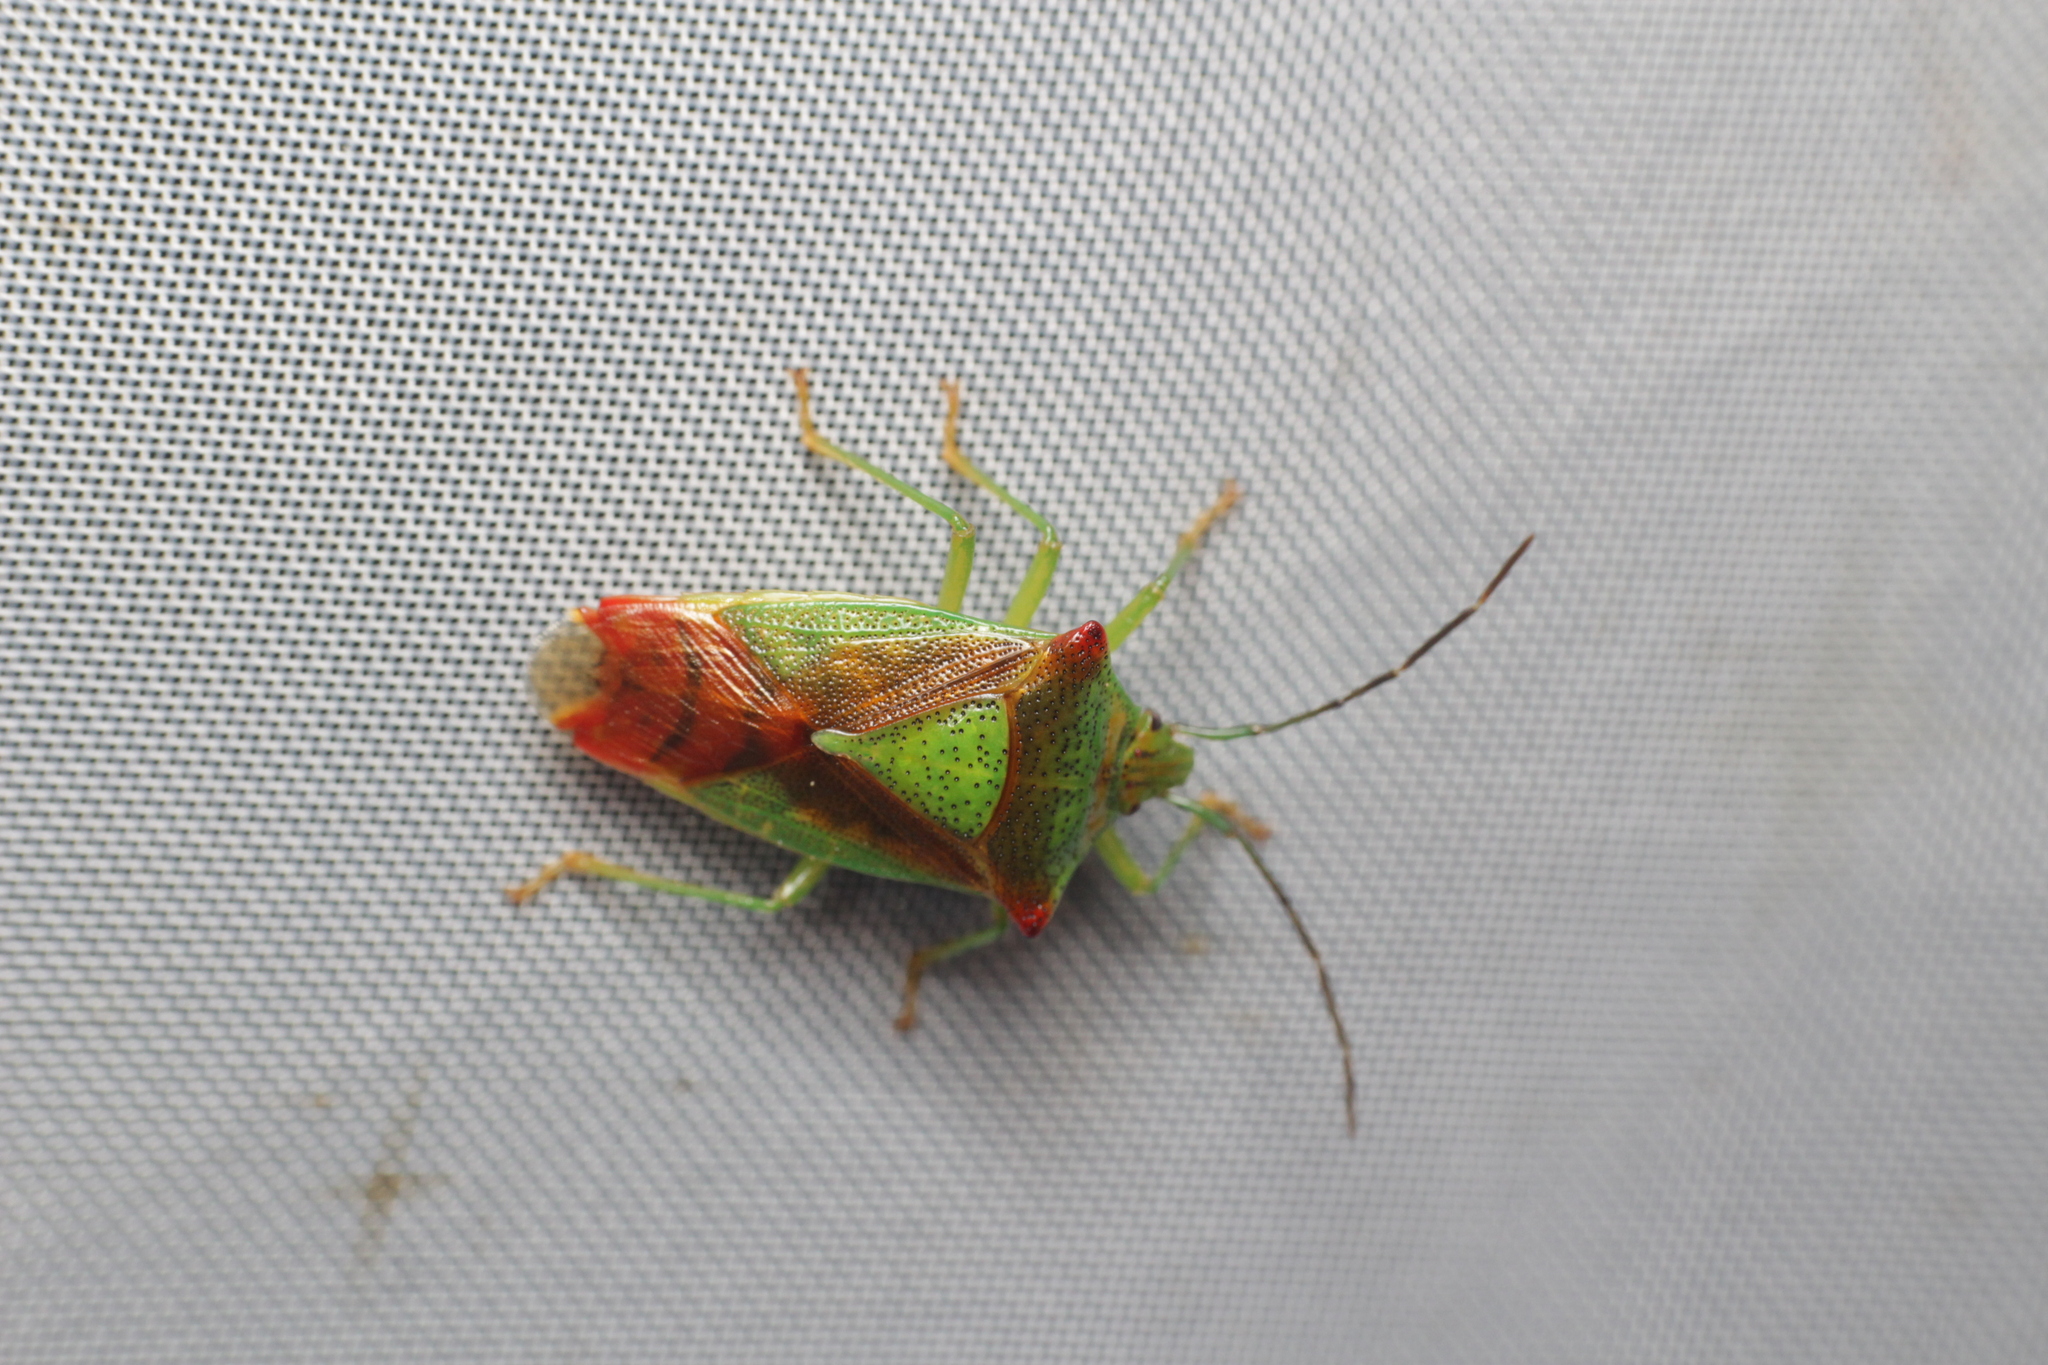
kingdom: Animalia
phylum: Arthropoda
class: Insecta
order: Hemiptera
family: Acanthosomatidae
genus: Acanthosoma
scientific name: Acanthosoma haemorrhoidale
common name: Hawthorn shieldbug
